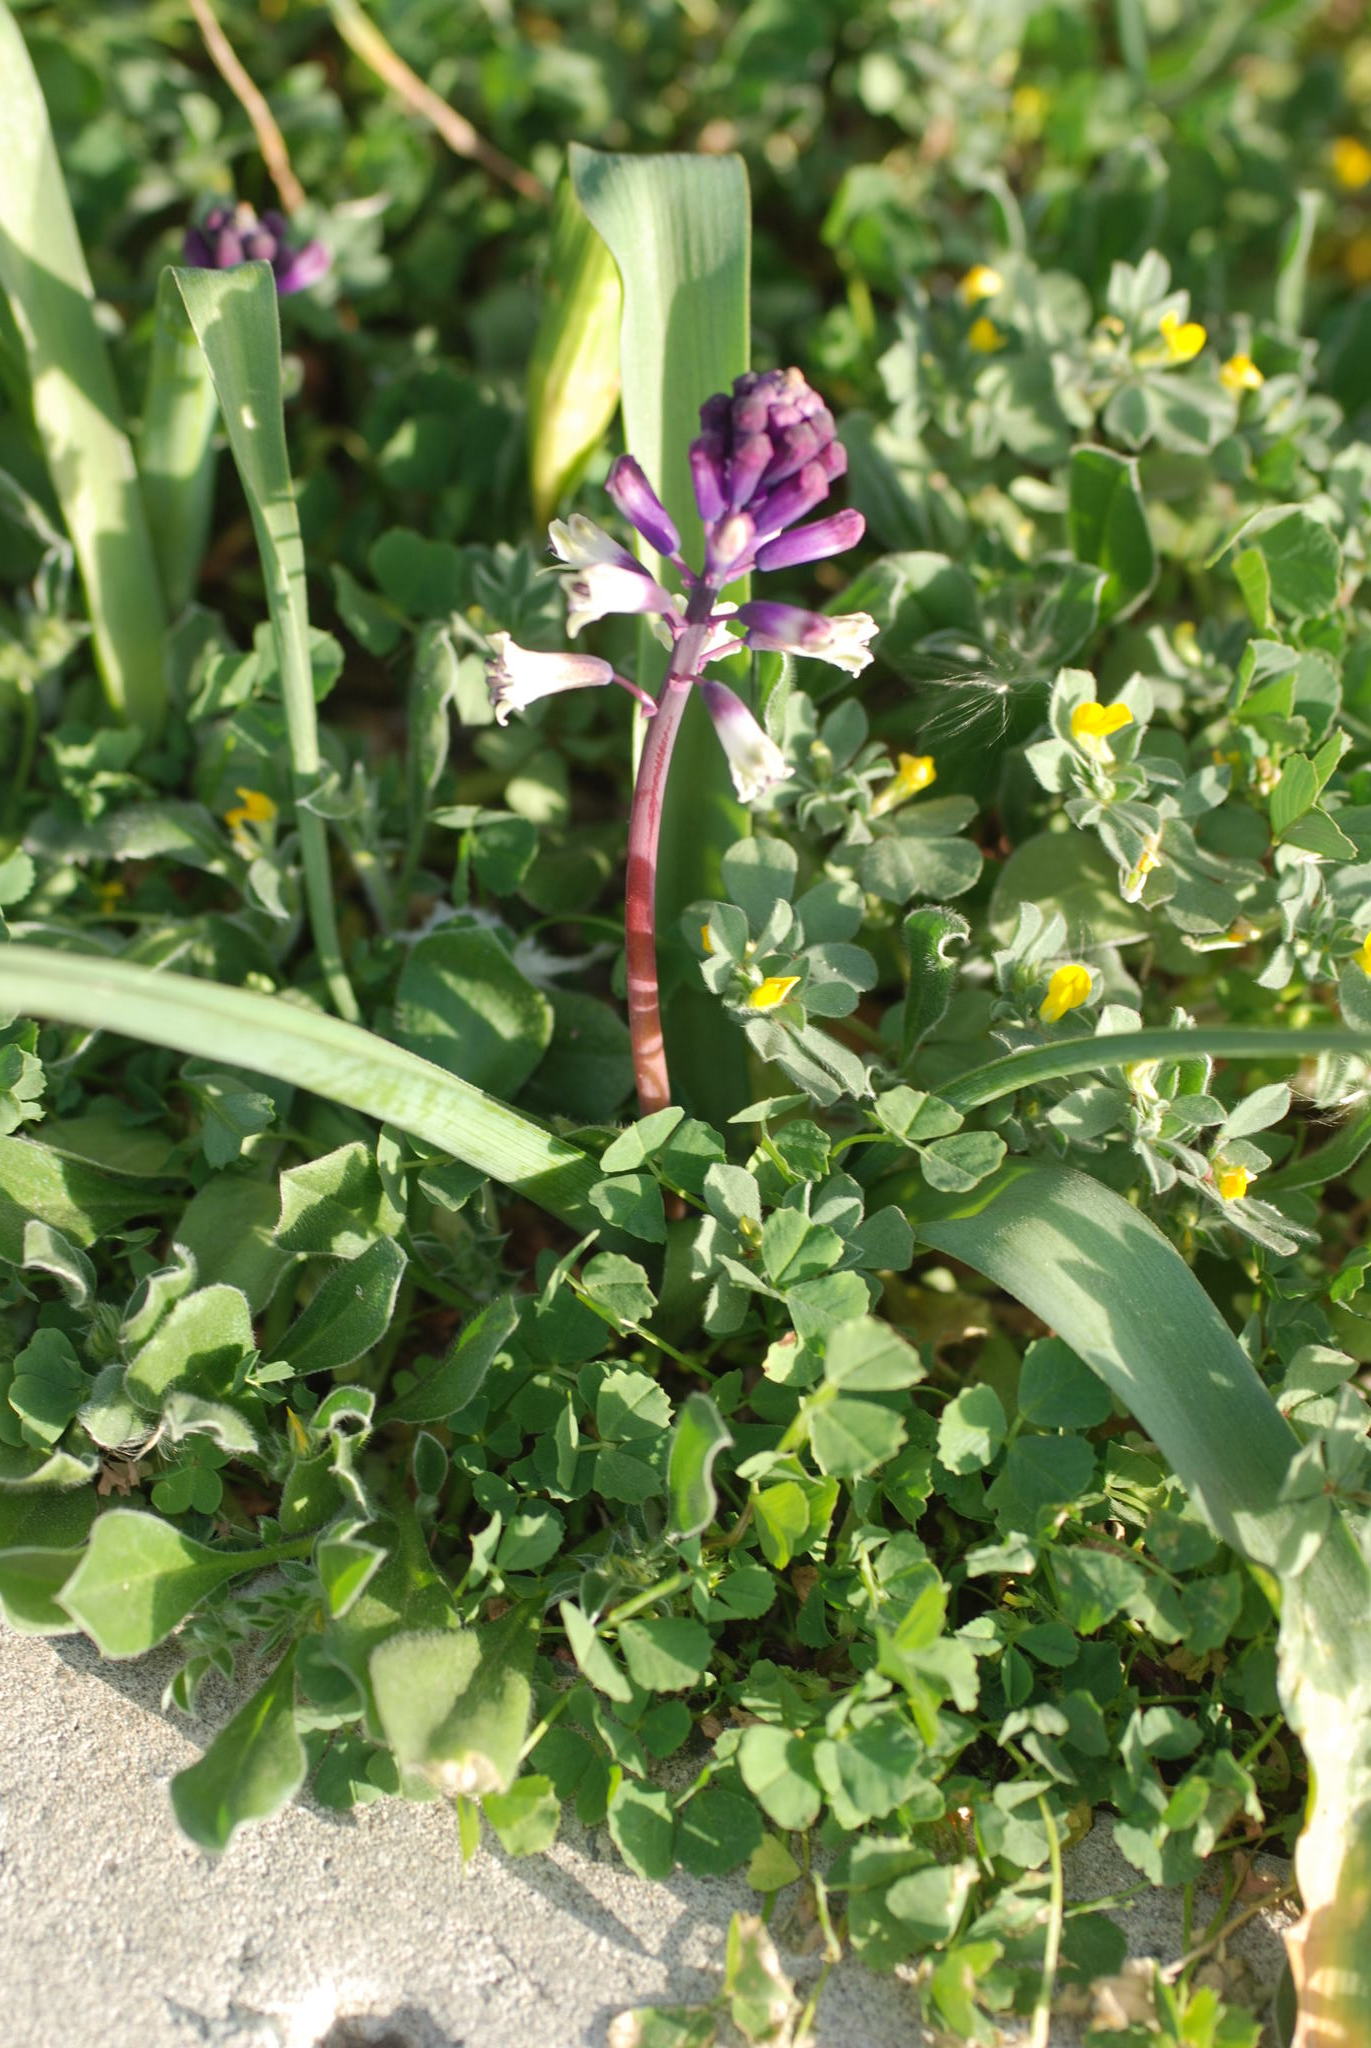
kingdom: Plantae
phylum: Tracheophyta
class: Liliopsida
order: Asparagales
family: Asparagaceae
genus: Bellevalia
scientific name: Bellevalia trifoliata
